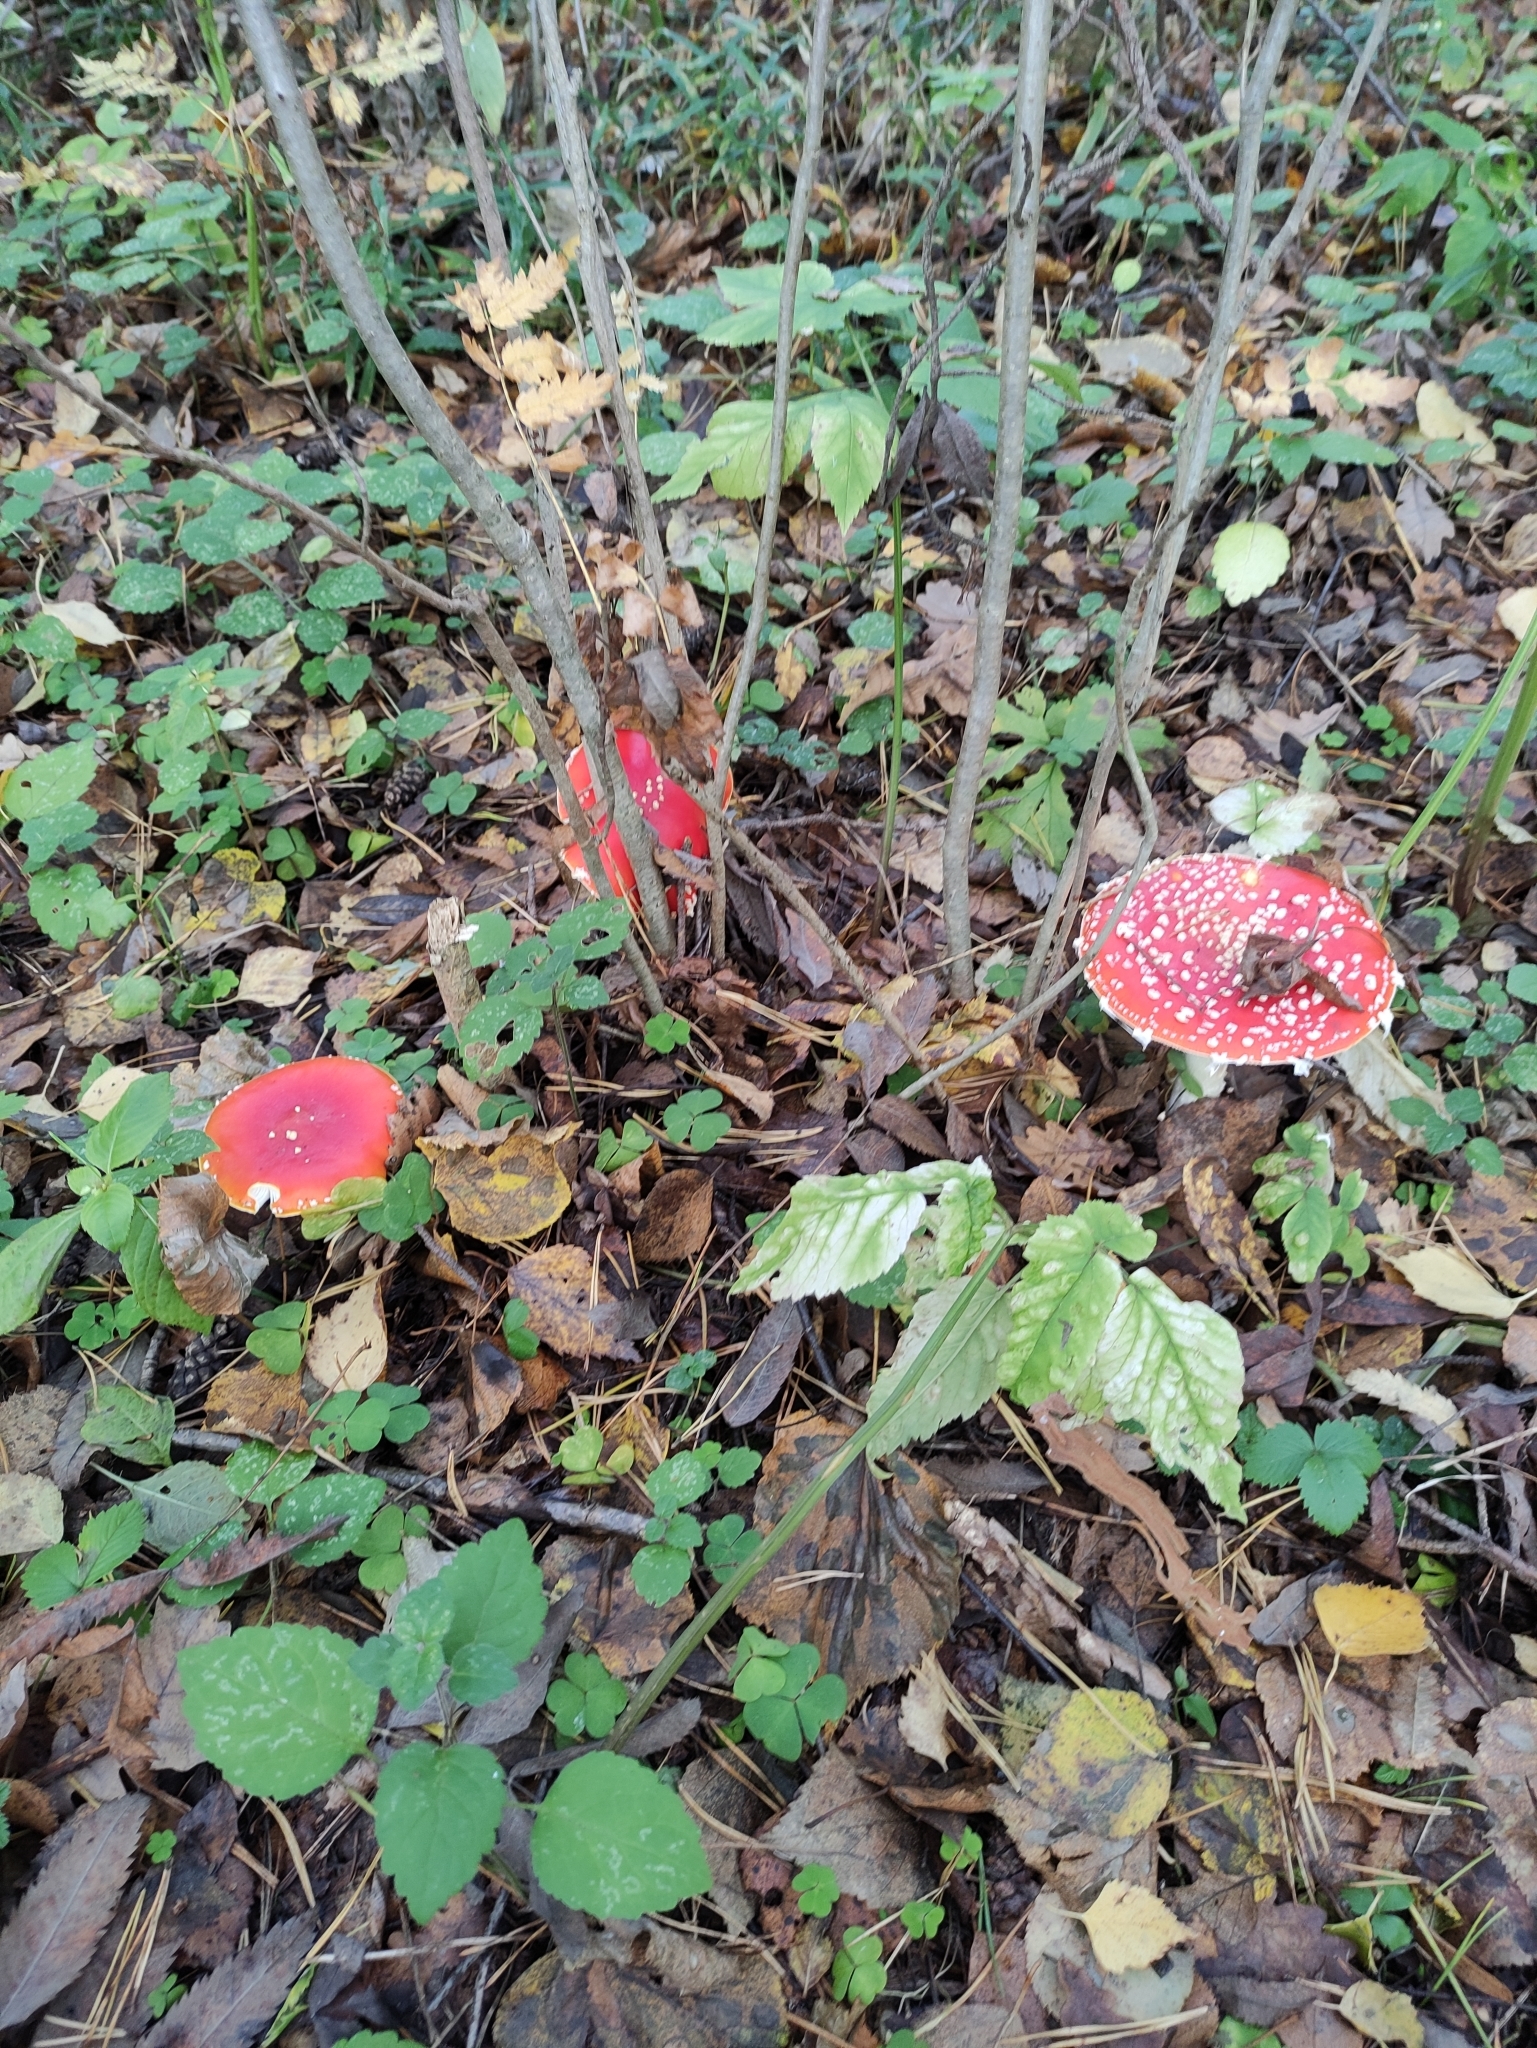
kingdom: Fungi
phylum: Basidiomycota
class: Agaricomycetes
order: Agaricales
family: Amanitaceae
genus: Amanita
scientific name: Amanita muscaria
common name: Fly agaric
